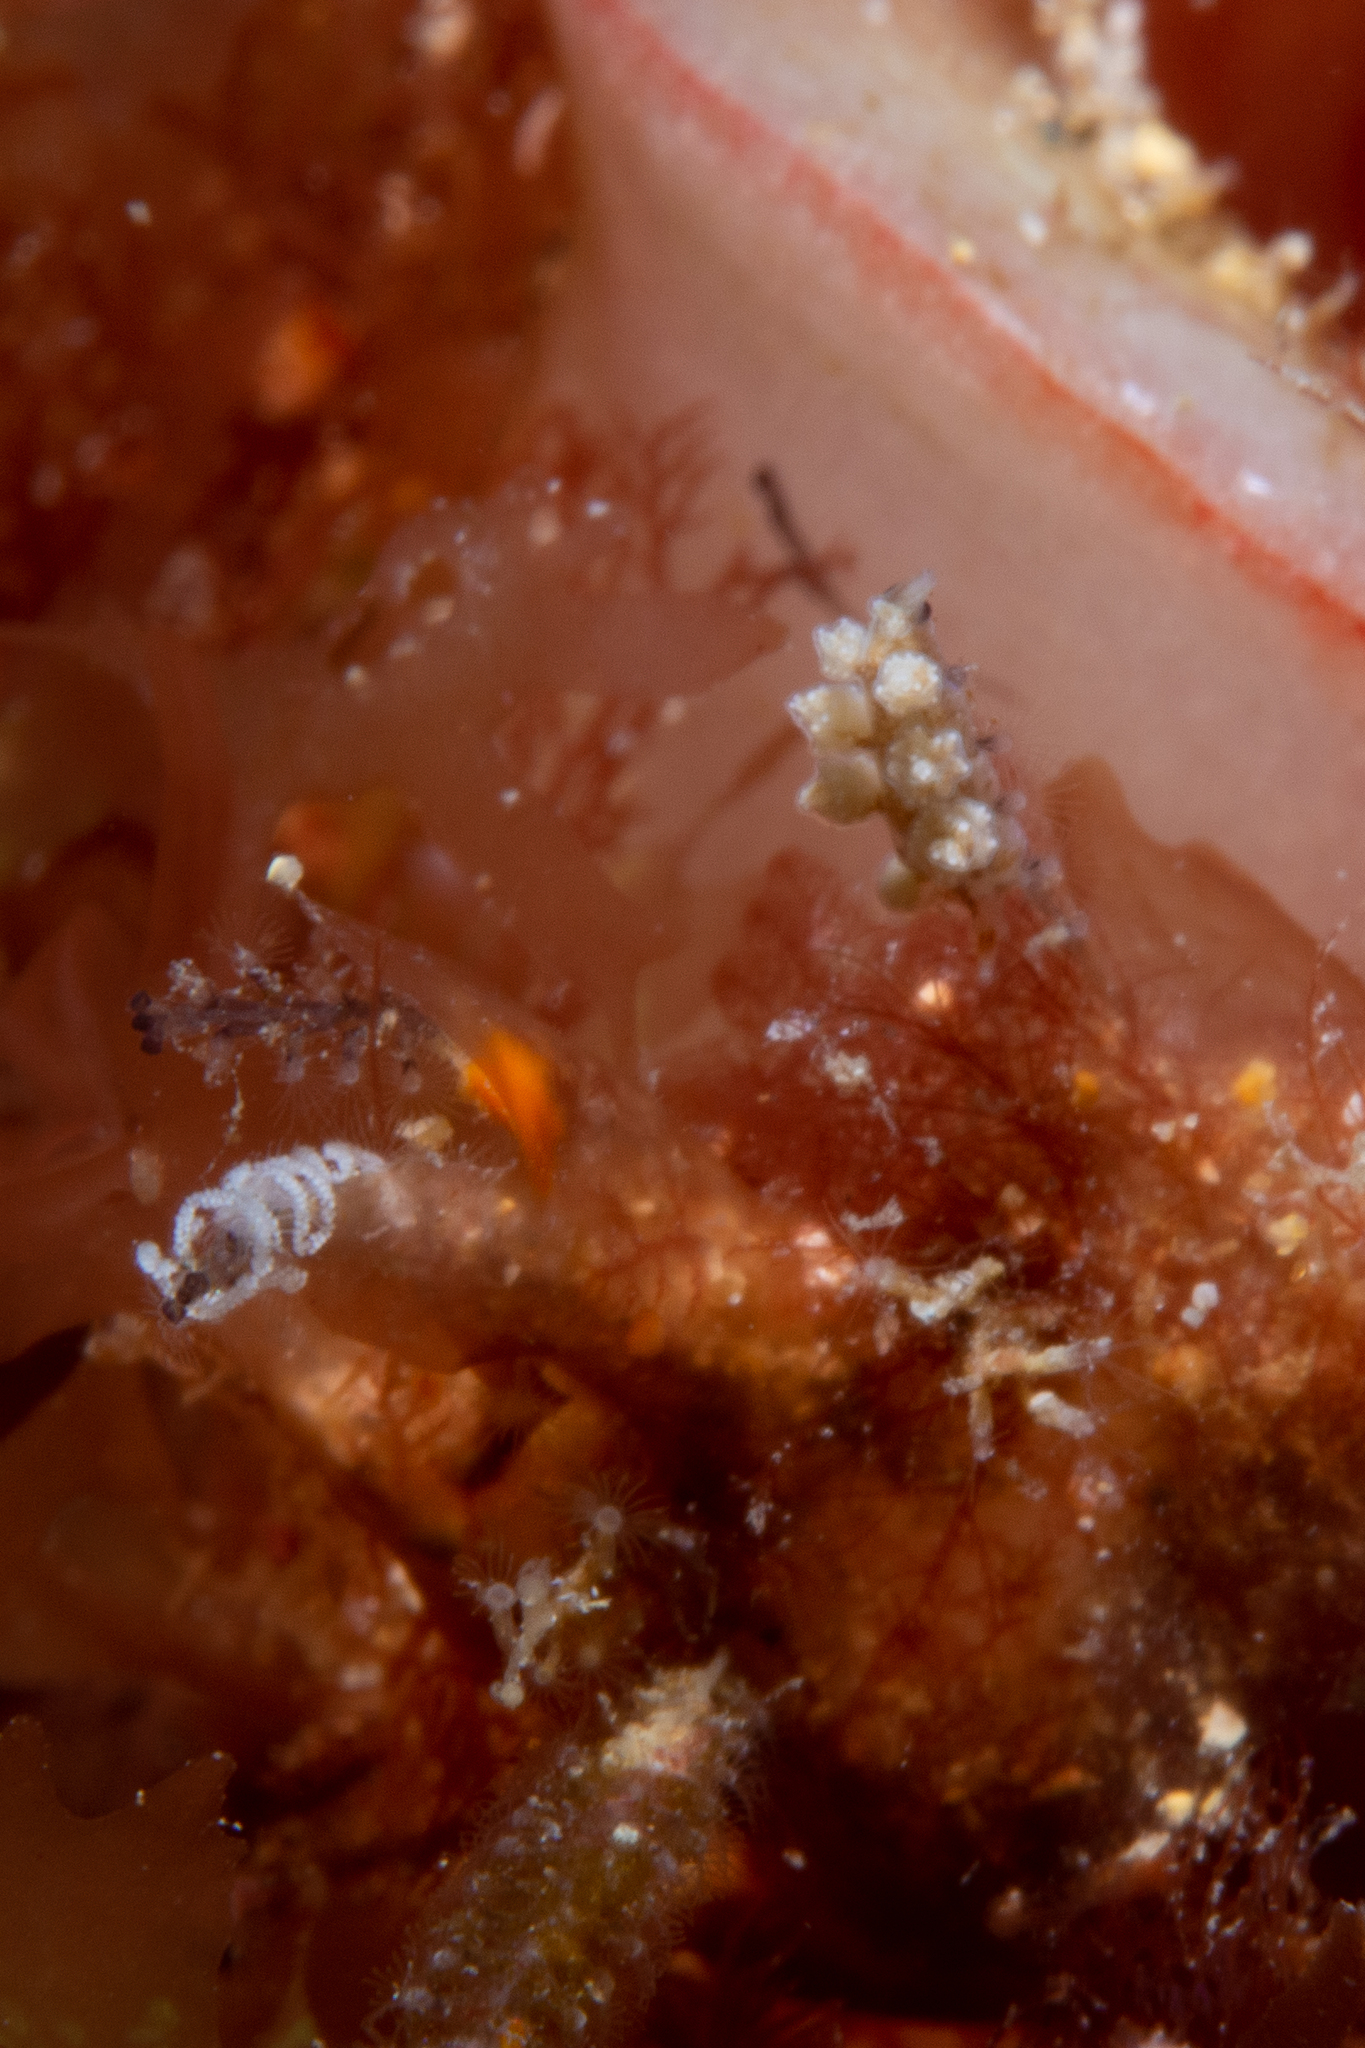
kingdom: Animalia
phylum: Mollusca
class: Gastropoda
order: Nudibranchia
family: Dotidae
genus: Doto
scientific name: Doto pita
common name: Pita doto
